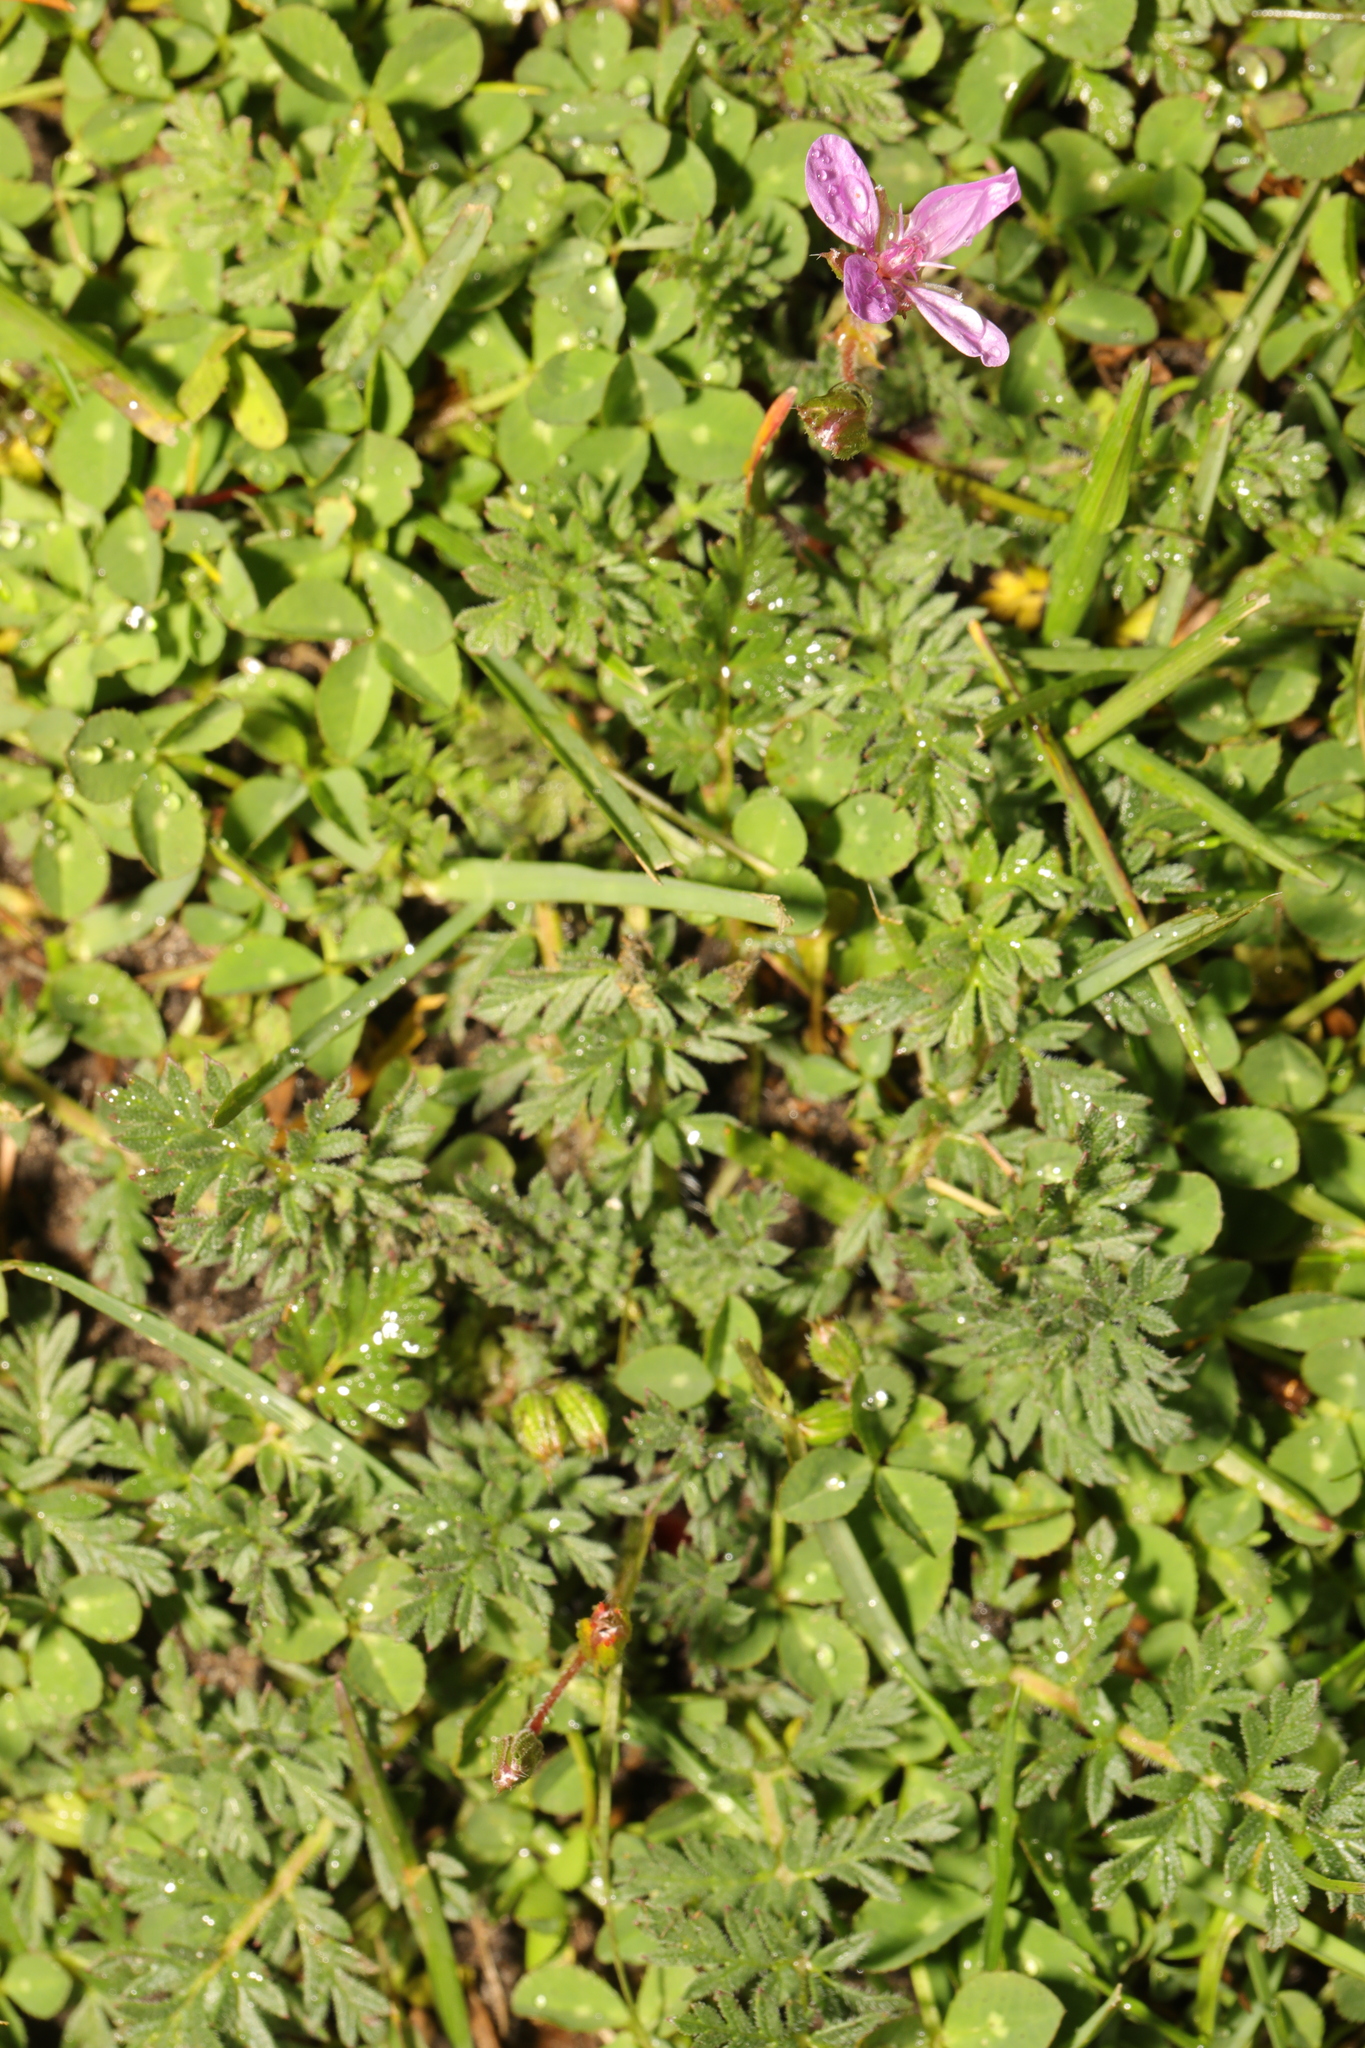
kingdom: Plantae
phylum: Tracheophyta
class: Magnoliopsida
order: Geraniales
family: Geraniaceae
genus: Erodium
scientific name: Erodium cicutarium
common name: Common stork's-bill
